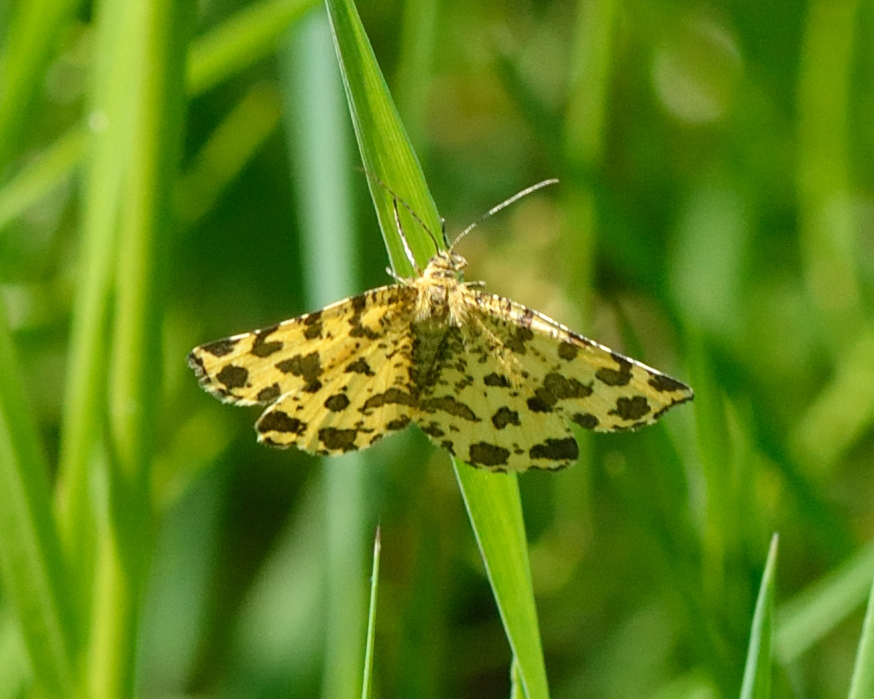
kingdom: Animalia
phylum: Arthropoda
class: Insecta
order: Lepidoptera
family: Geometridae
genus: Pseudopanthera
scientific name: Pseudopanthera macularia
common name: Speckled yellow
